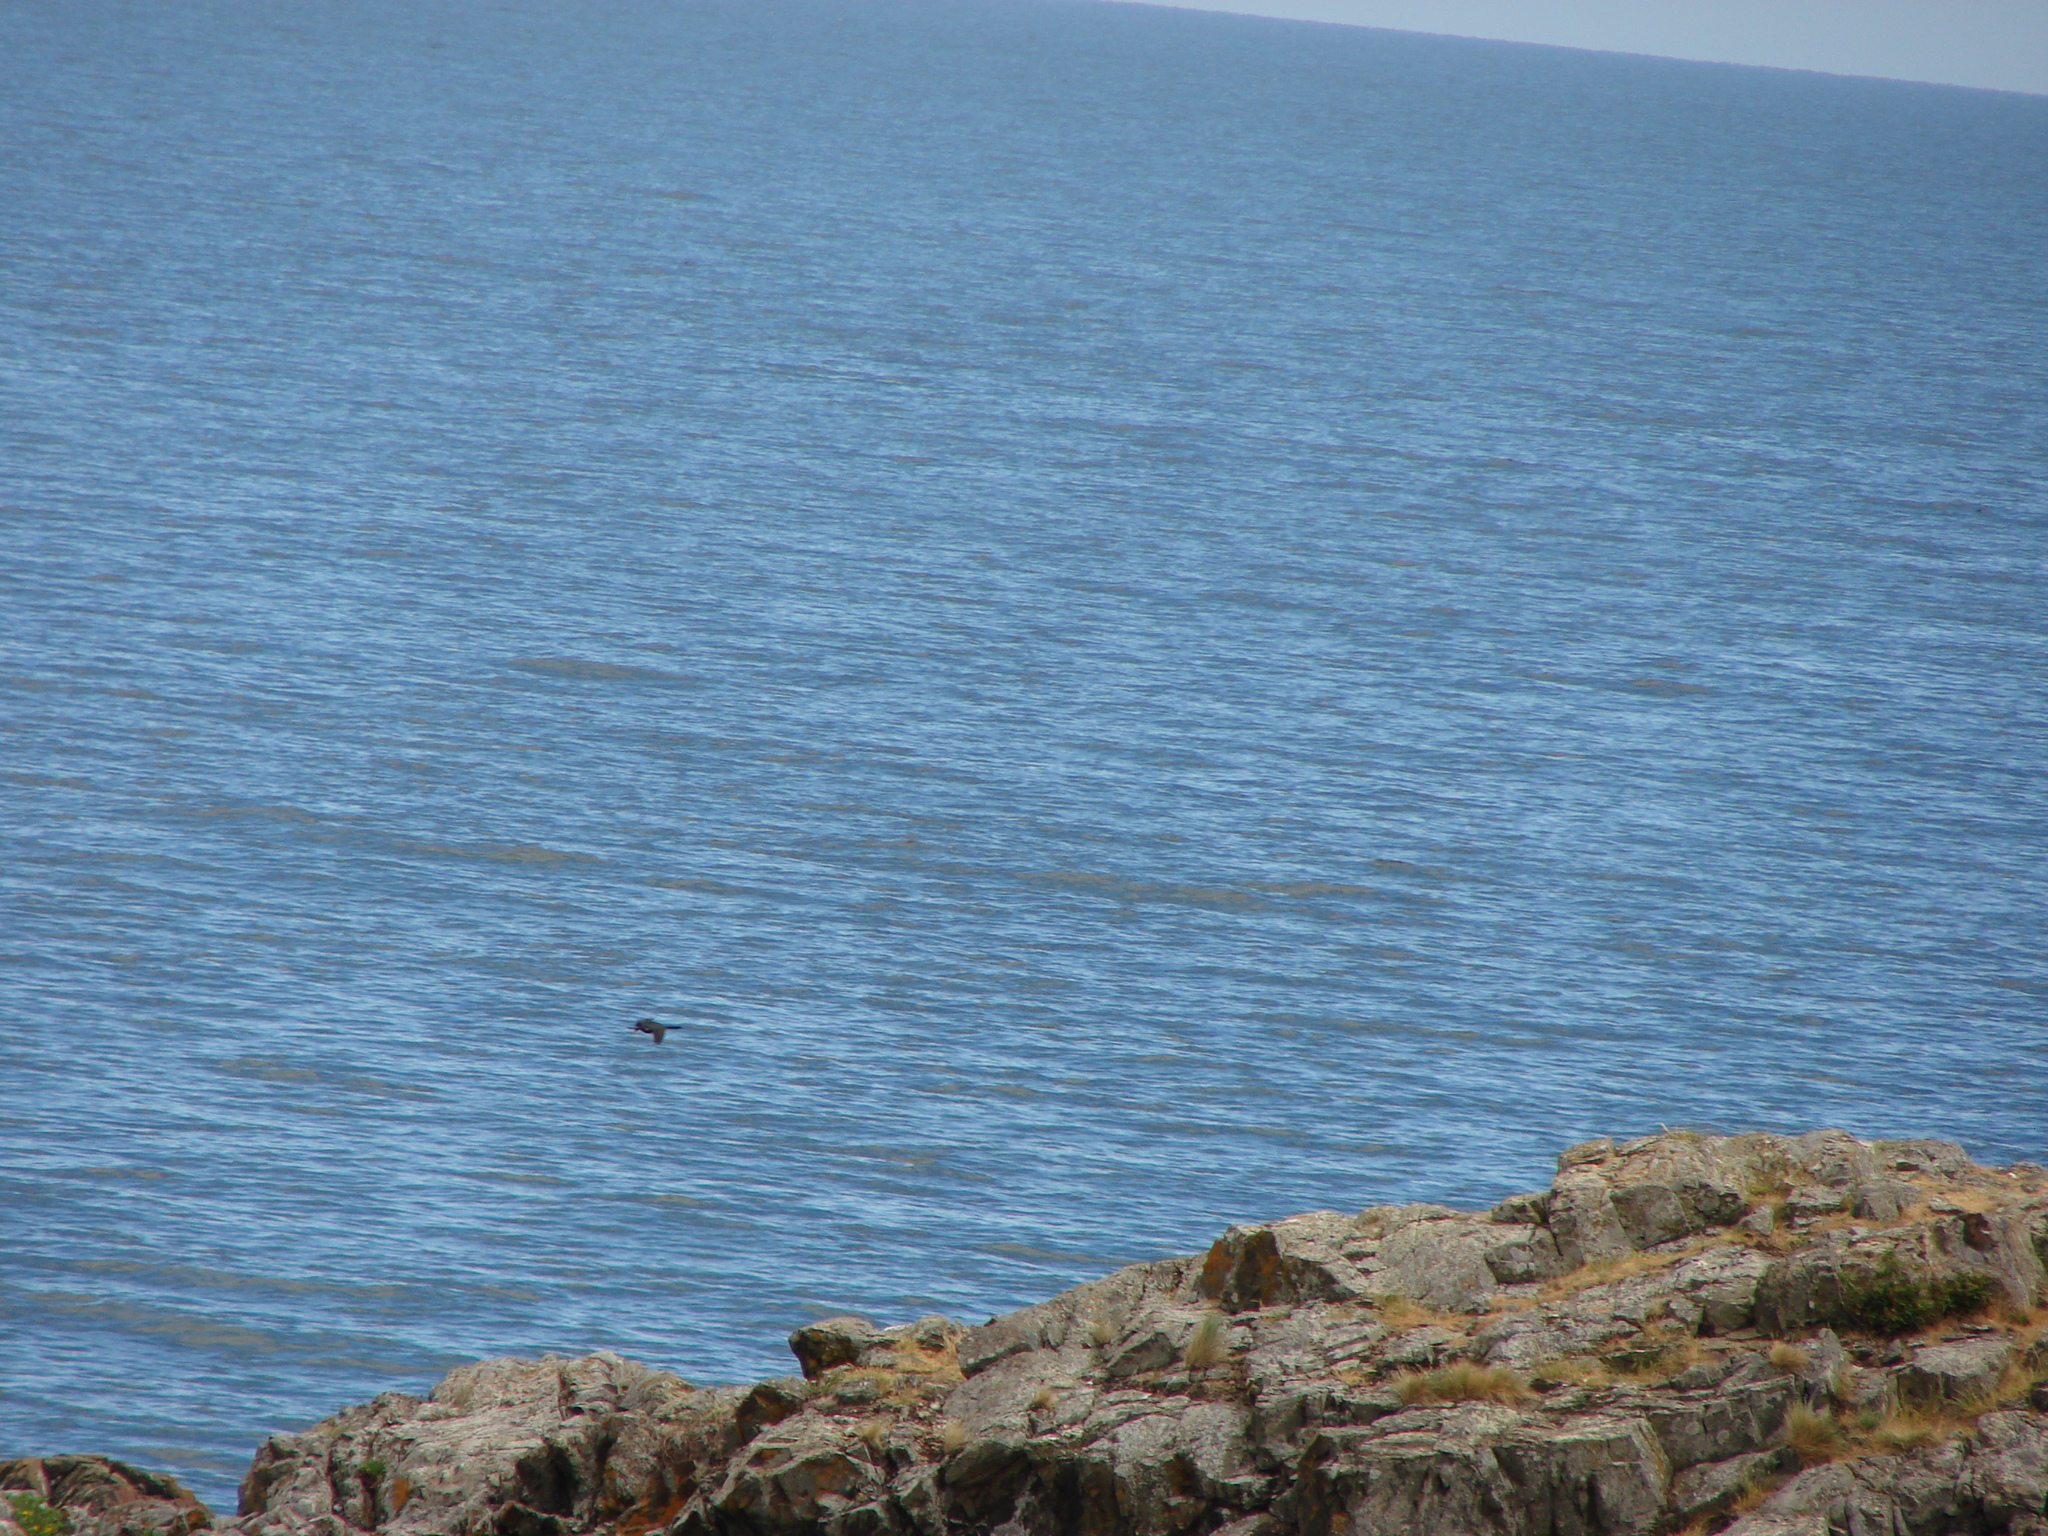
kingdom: Animalia
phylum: Chordata
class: Aves
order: Suliformes
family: Phalacrocoracidae
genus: Phalacrocorax
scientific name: Phalacrocorax pelagicus
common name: Pelagic cormorant
